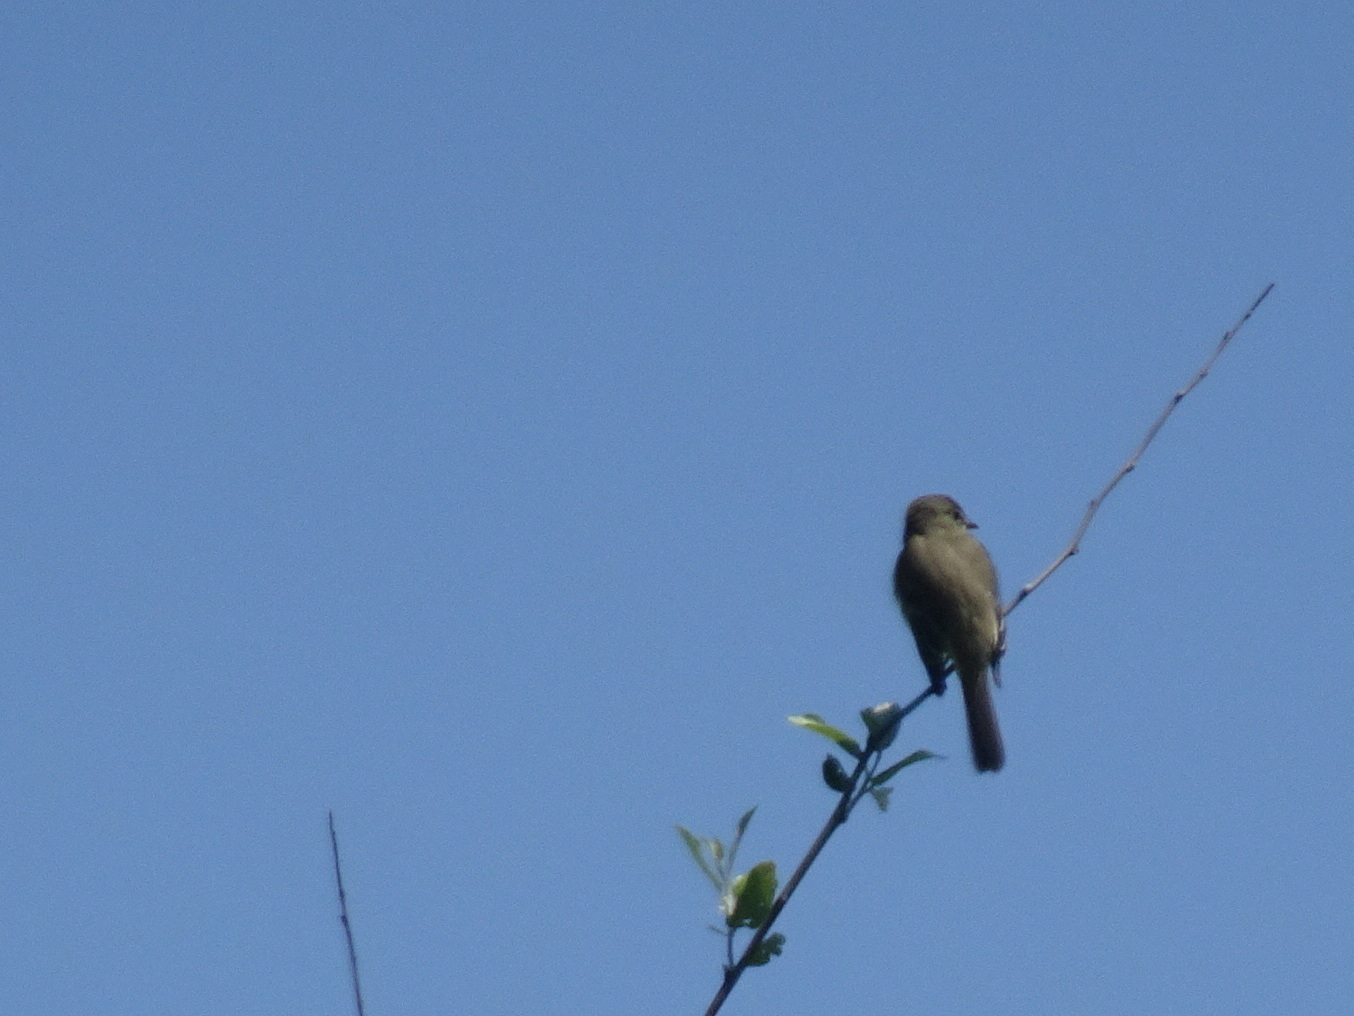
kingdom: Animalia
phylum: Chordata
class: Aves
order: Passeriformes
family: Tyrannidae
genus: Empidonax
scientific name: Empidonax traillii
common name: Willow flycatcher
